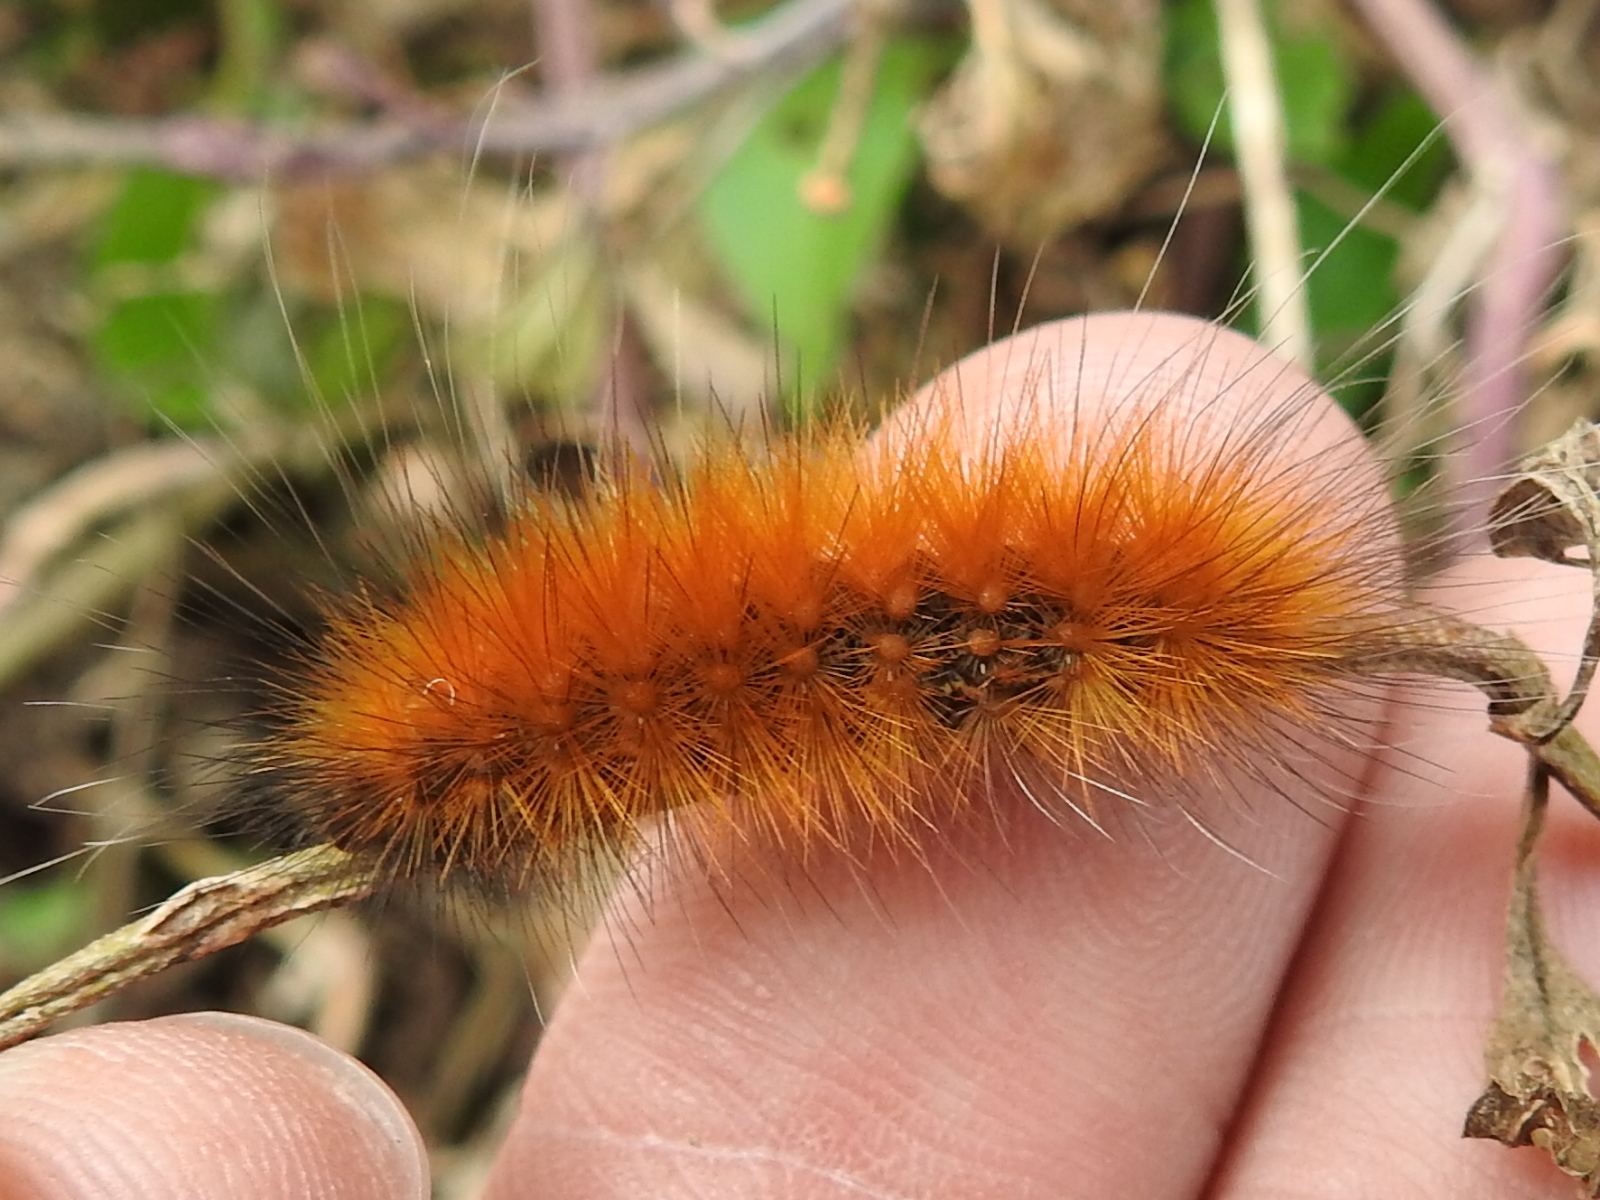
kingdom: Animalia
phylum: Arthropoda
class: Insecta
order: Lepidoptera
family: Erebidae
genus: Estigmene
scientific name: Estigmene acrea
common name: Salt marsh moth
